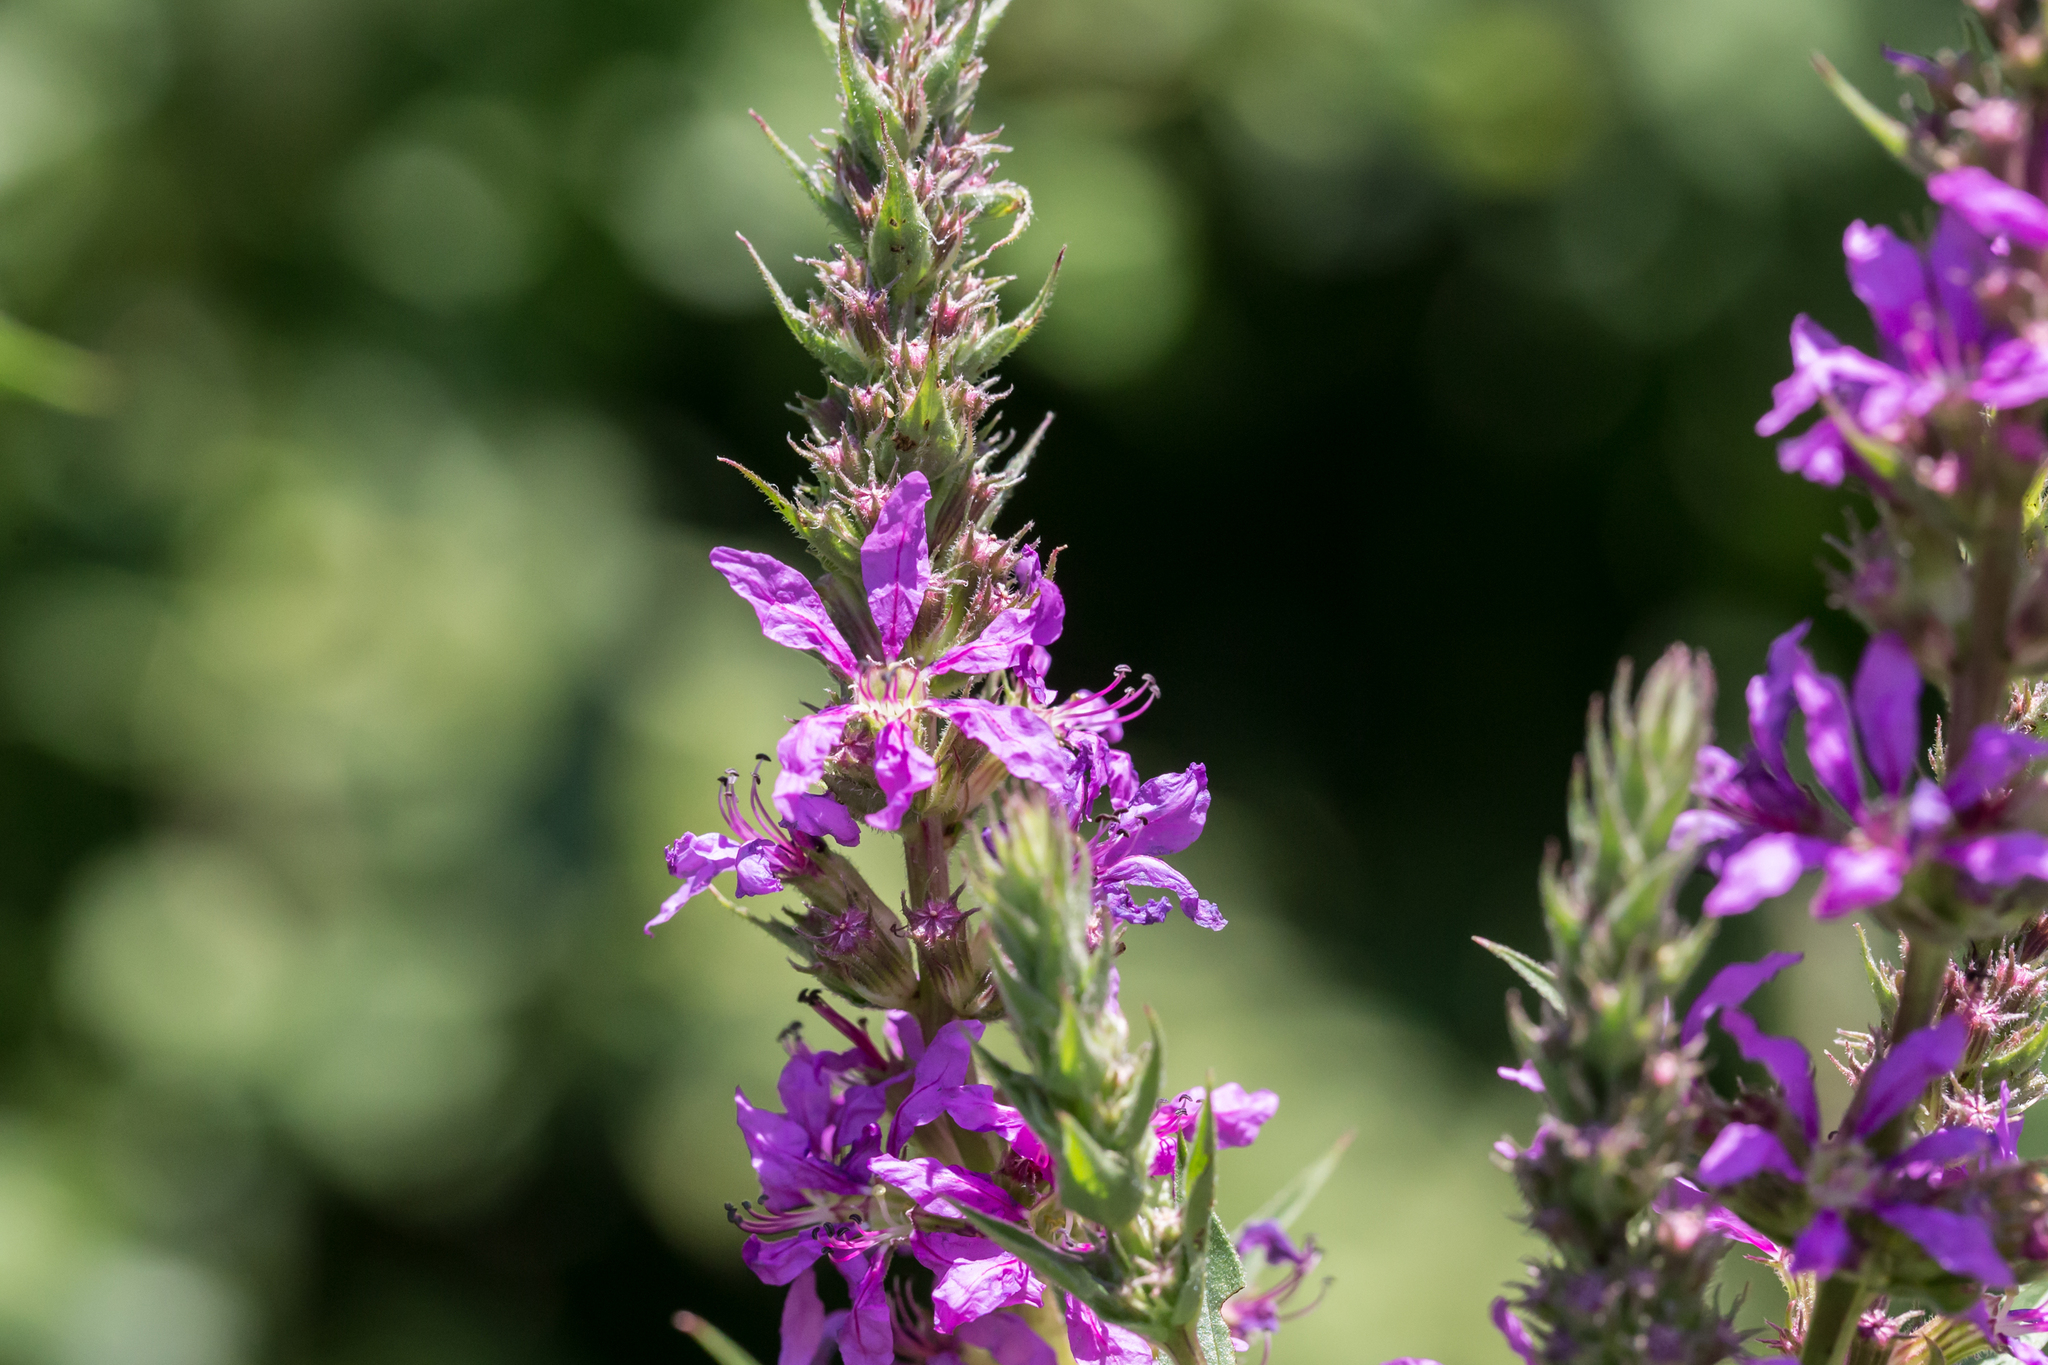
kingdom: Plantae
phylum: Tracheophyta
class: Magnoliopsida
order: Myrtales
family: Lythraceae
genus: Lythrum
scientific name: Lythrum salicaria
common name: Purple loosestrife
